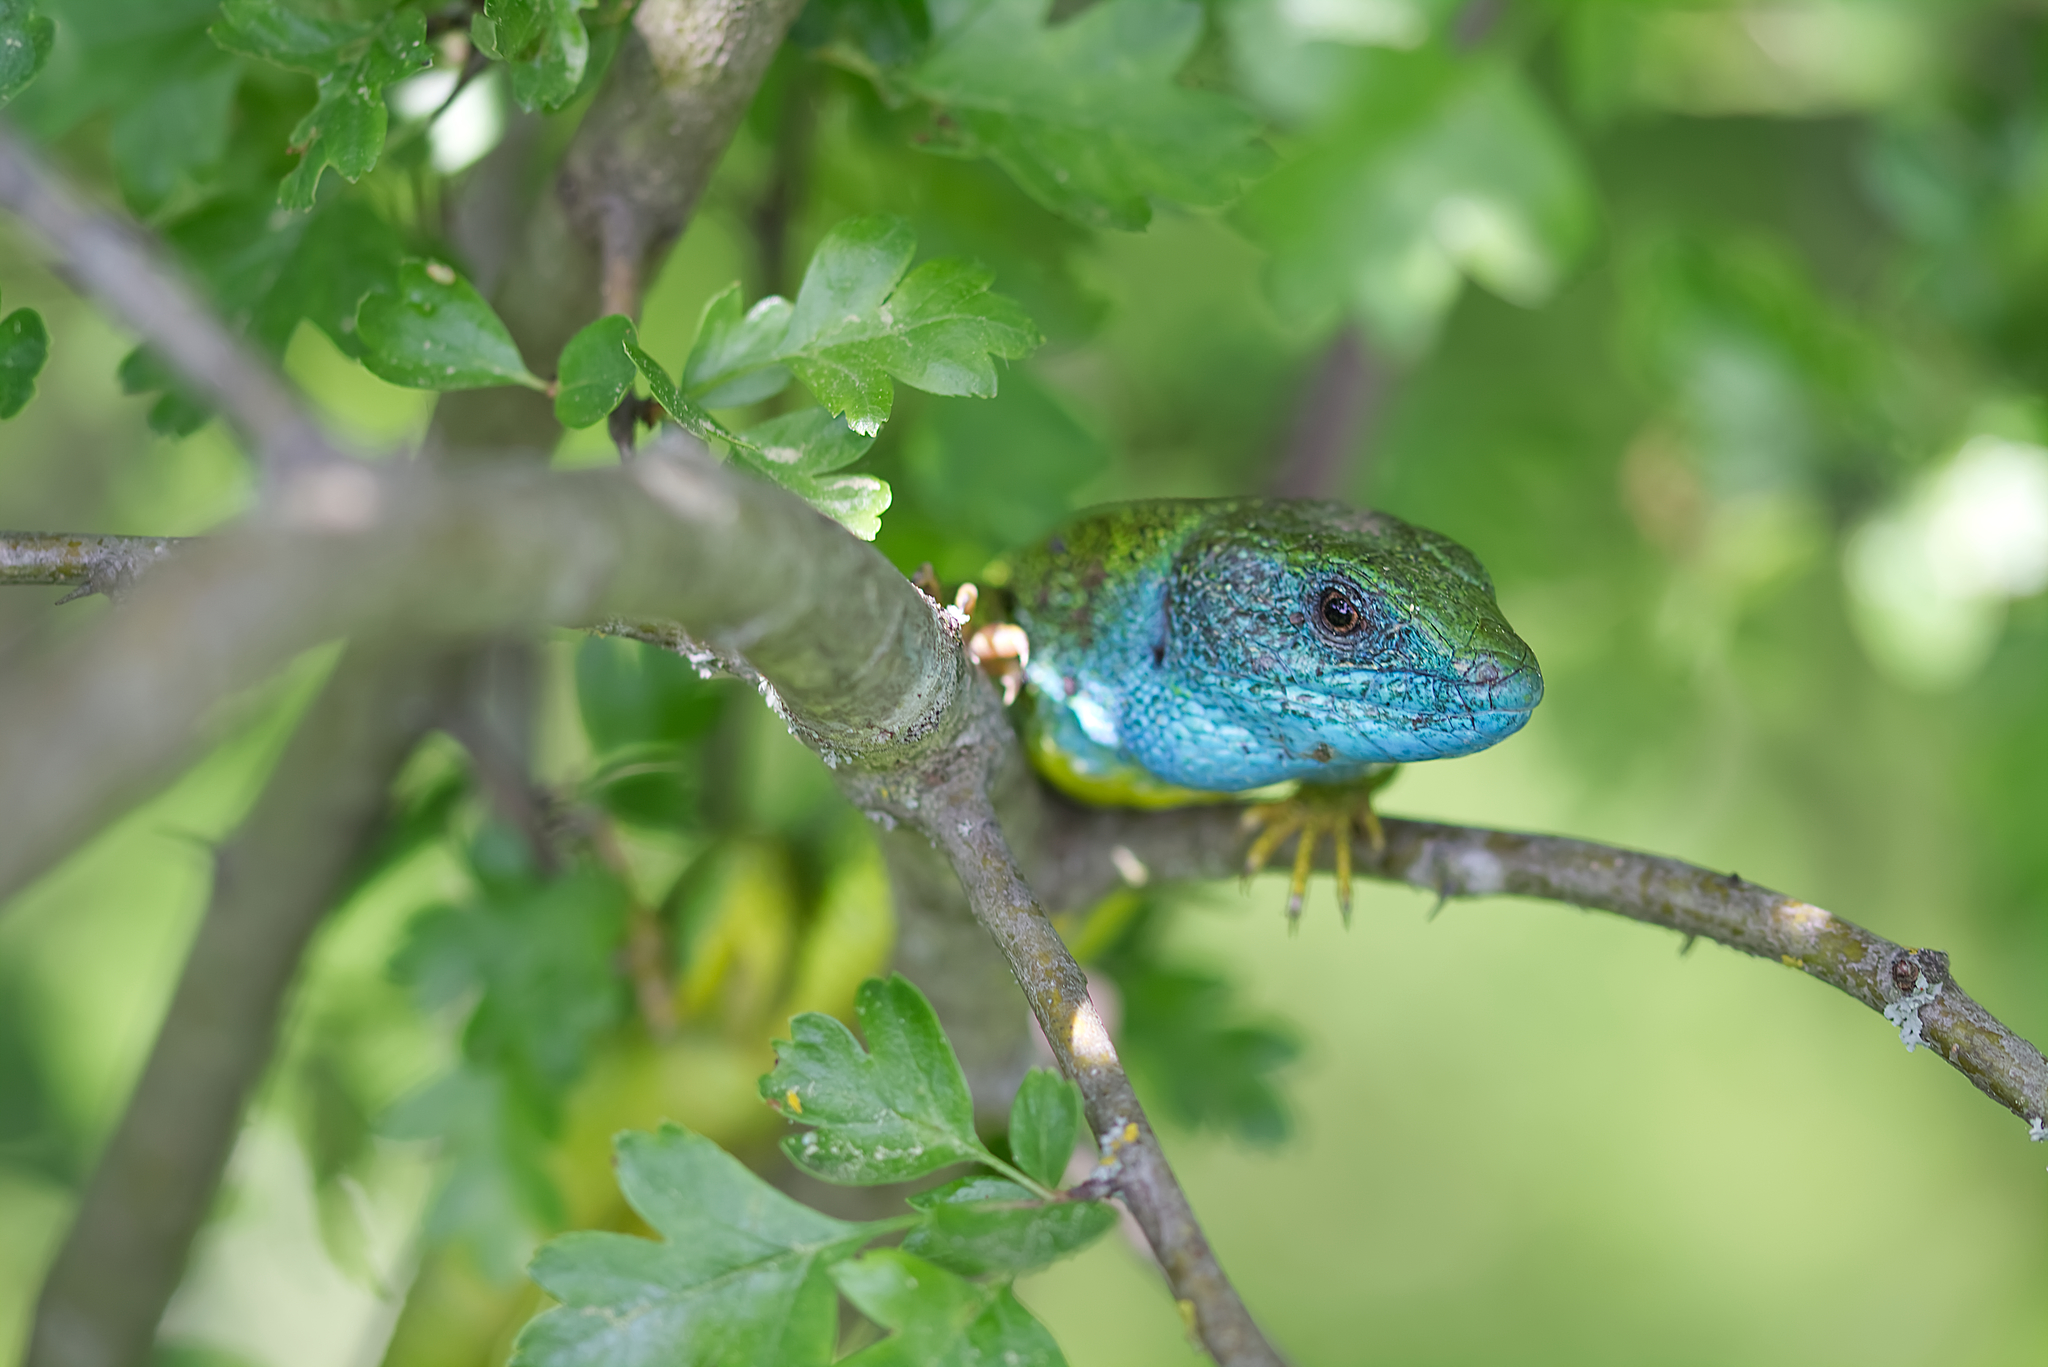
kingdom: Animalia
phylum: Chordata
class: Squamata
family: Lacertidae
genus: Lacerta
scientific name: Lacerta viridis
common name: European green lizard
